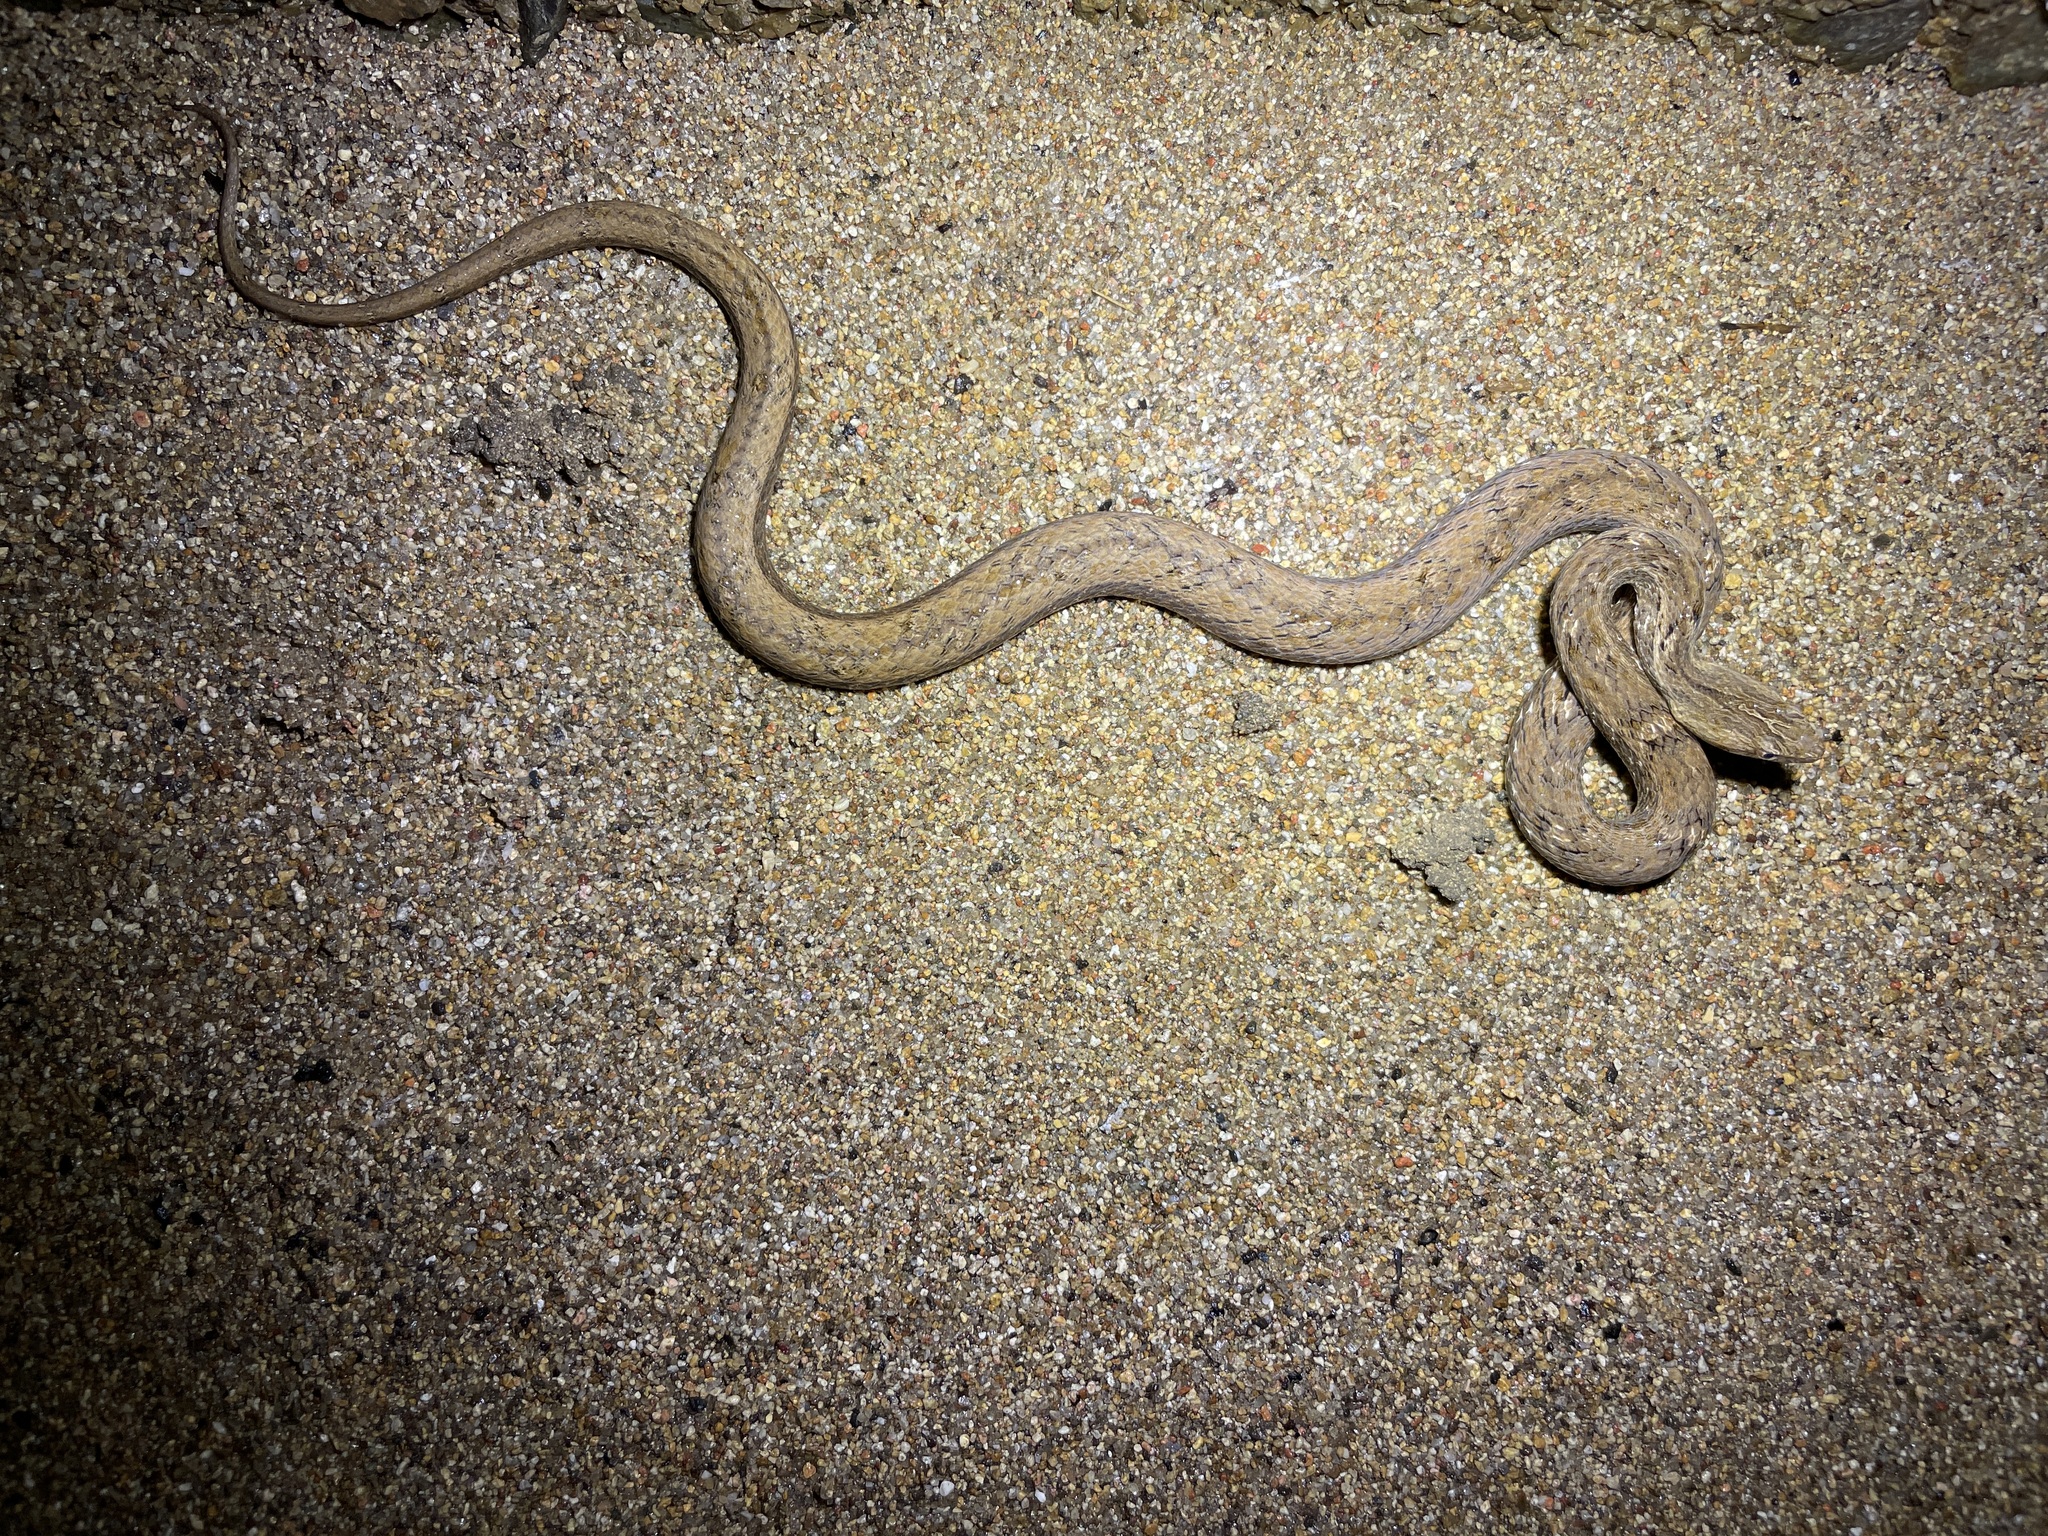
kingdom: Animalia
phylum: Chordata
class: Squamata
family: Pseudaspididae
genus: Psammodynastes
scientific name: Psammodynastes pulverulentus
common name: Common mock viper
